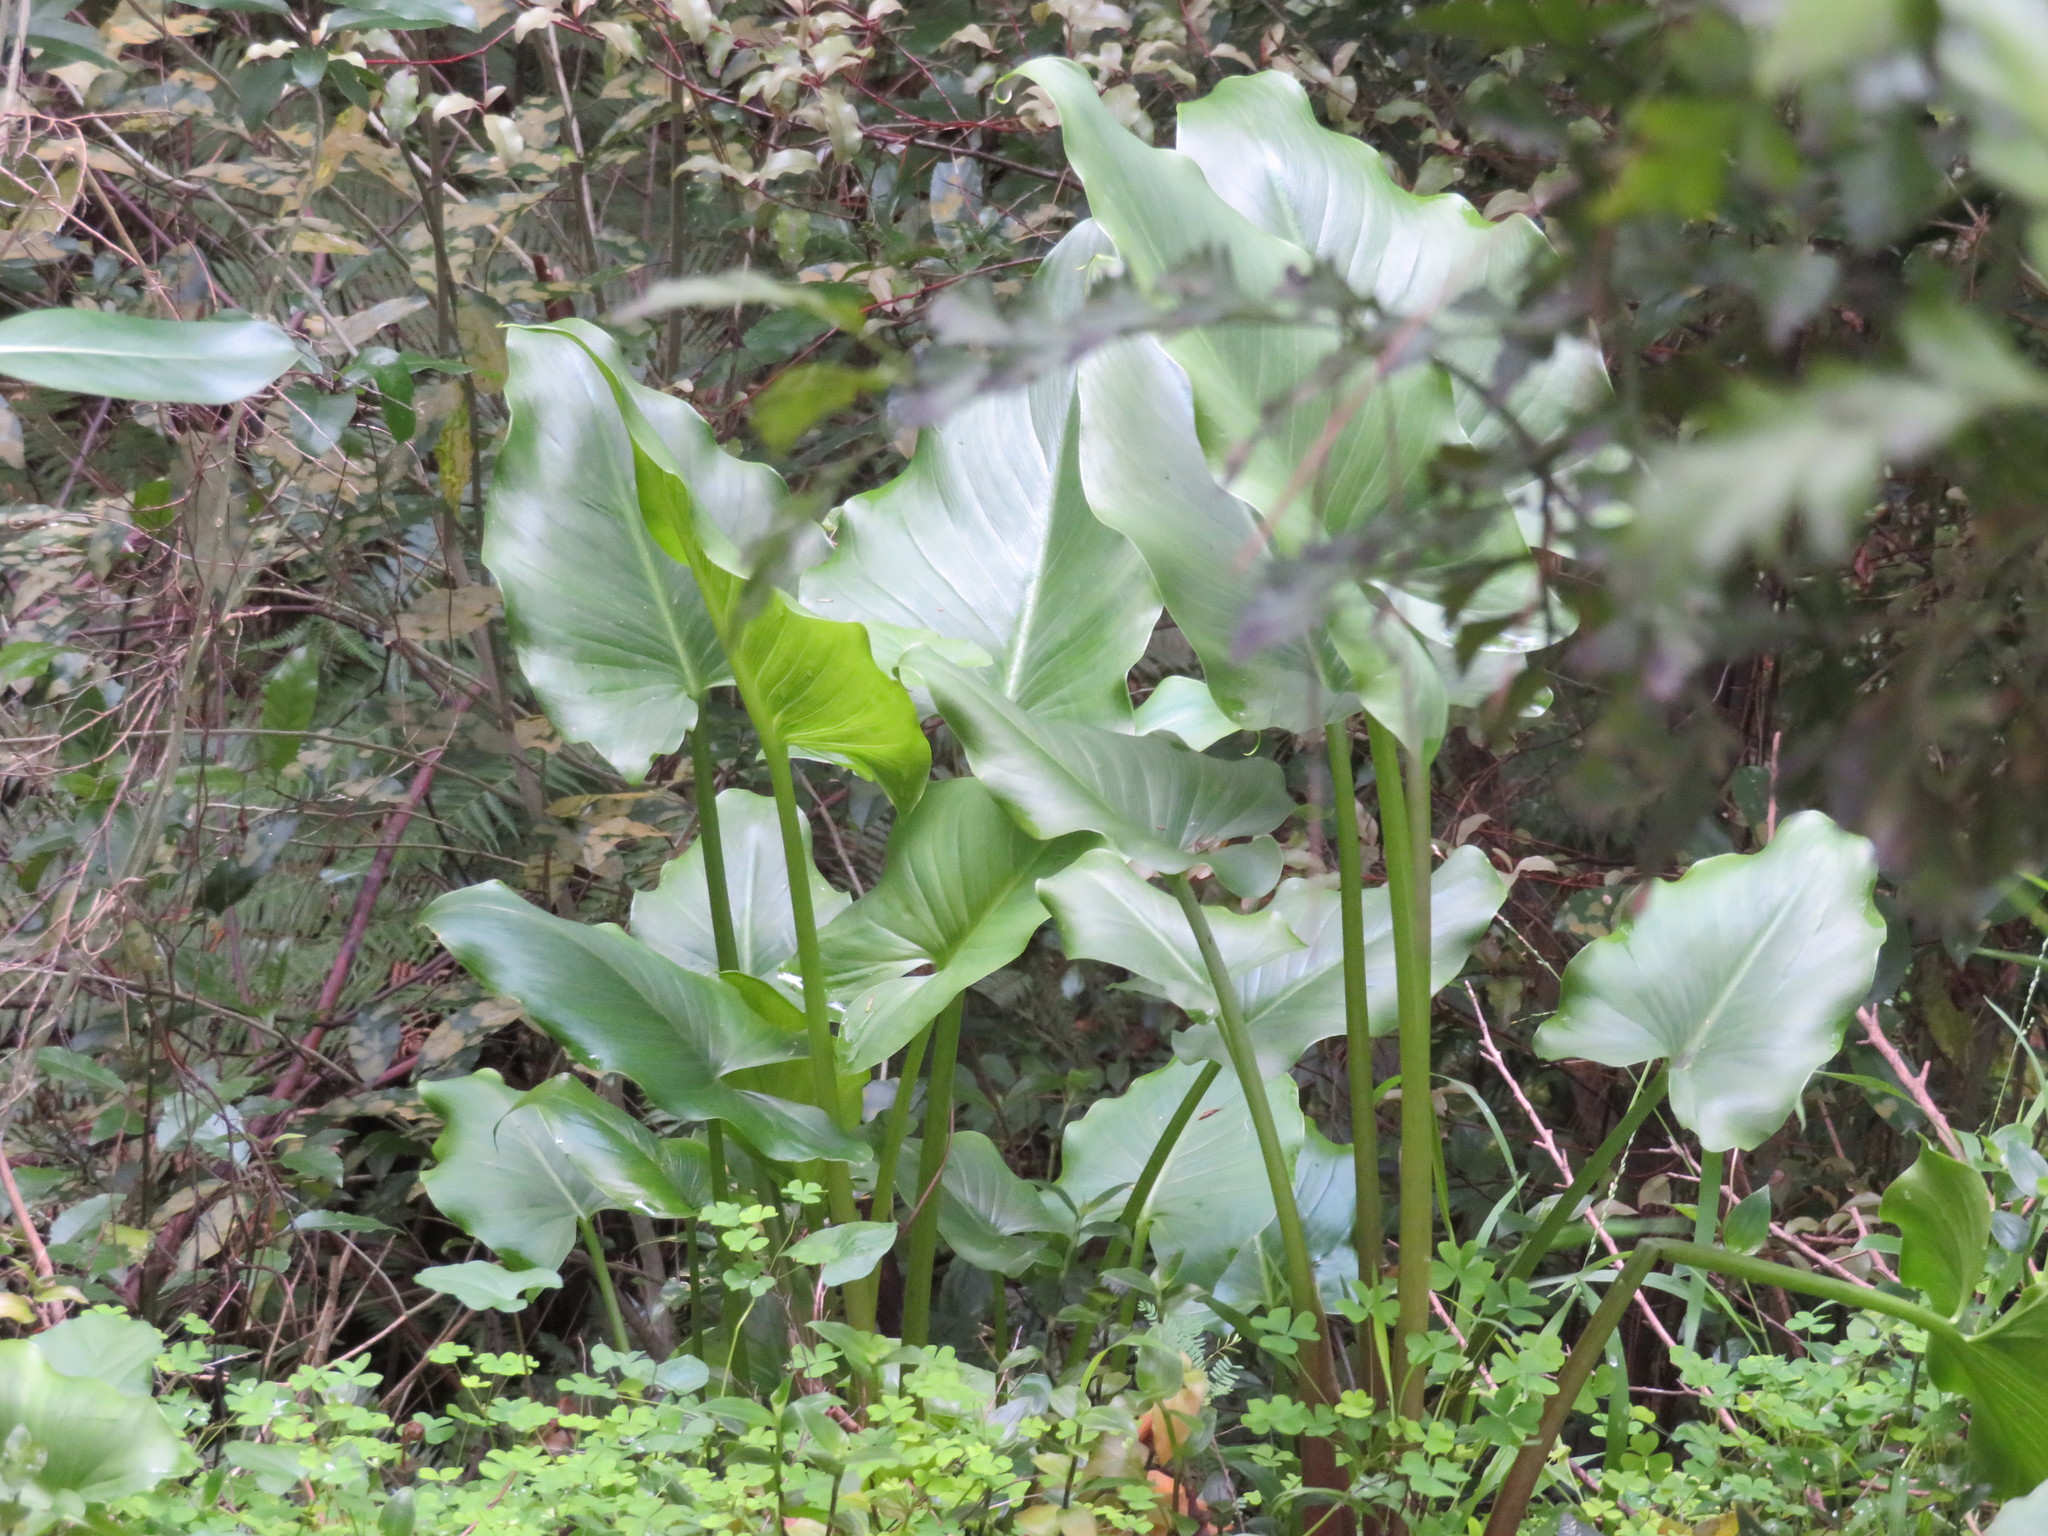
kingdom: Plantae
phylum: Tracheophyta
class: Liliopsida
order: Alismatales
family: Araceae
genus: Zantedeschia
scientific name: Zantedeschia aethiopica
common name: Altar-lily
